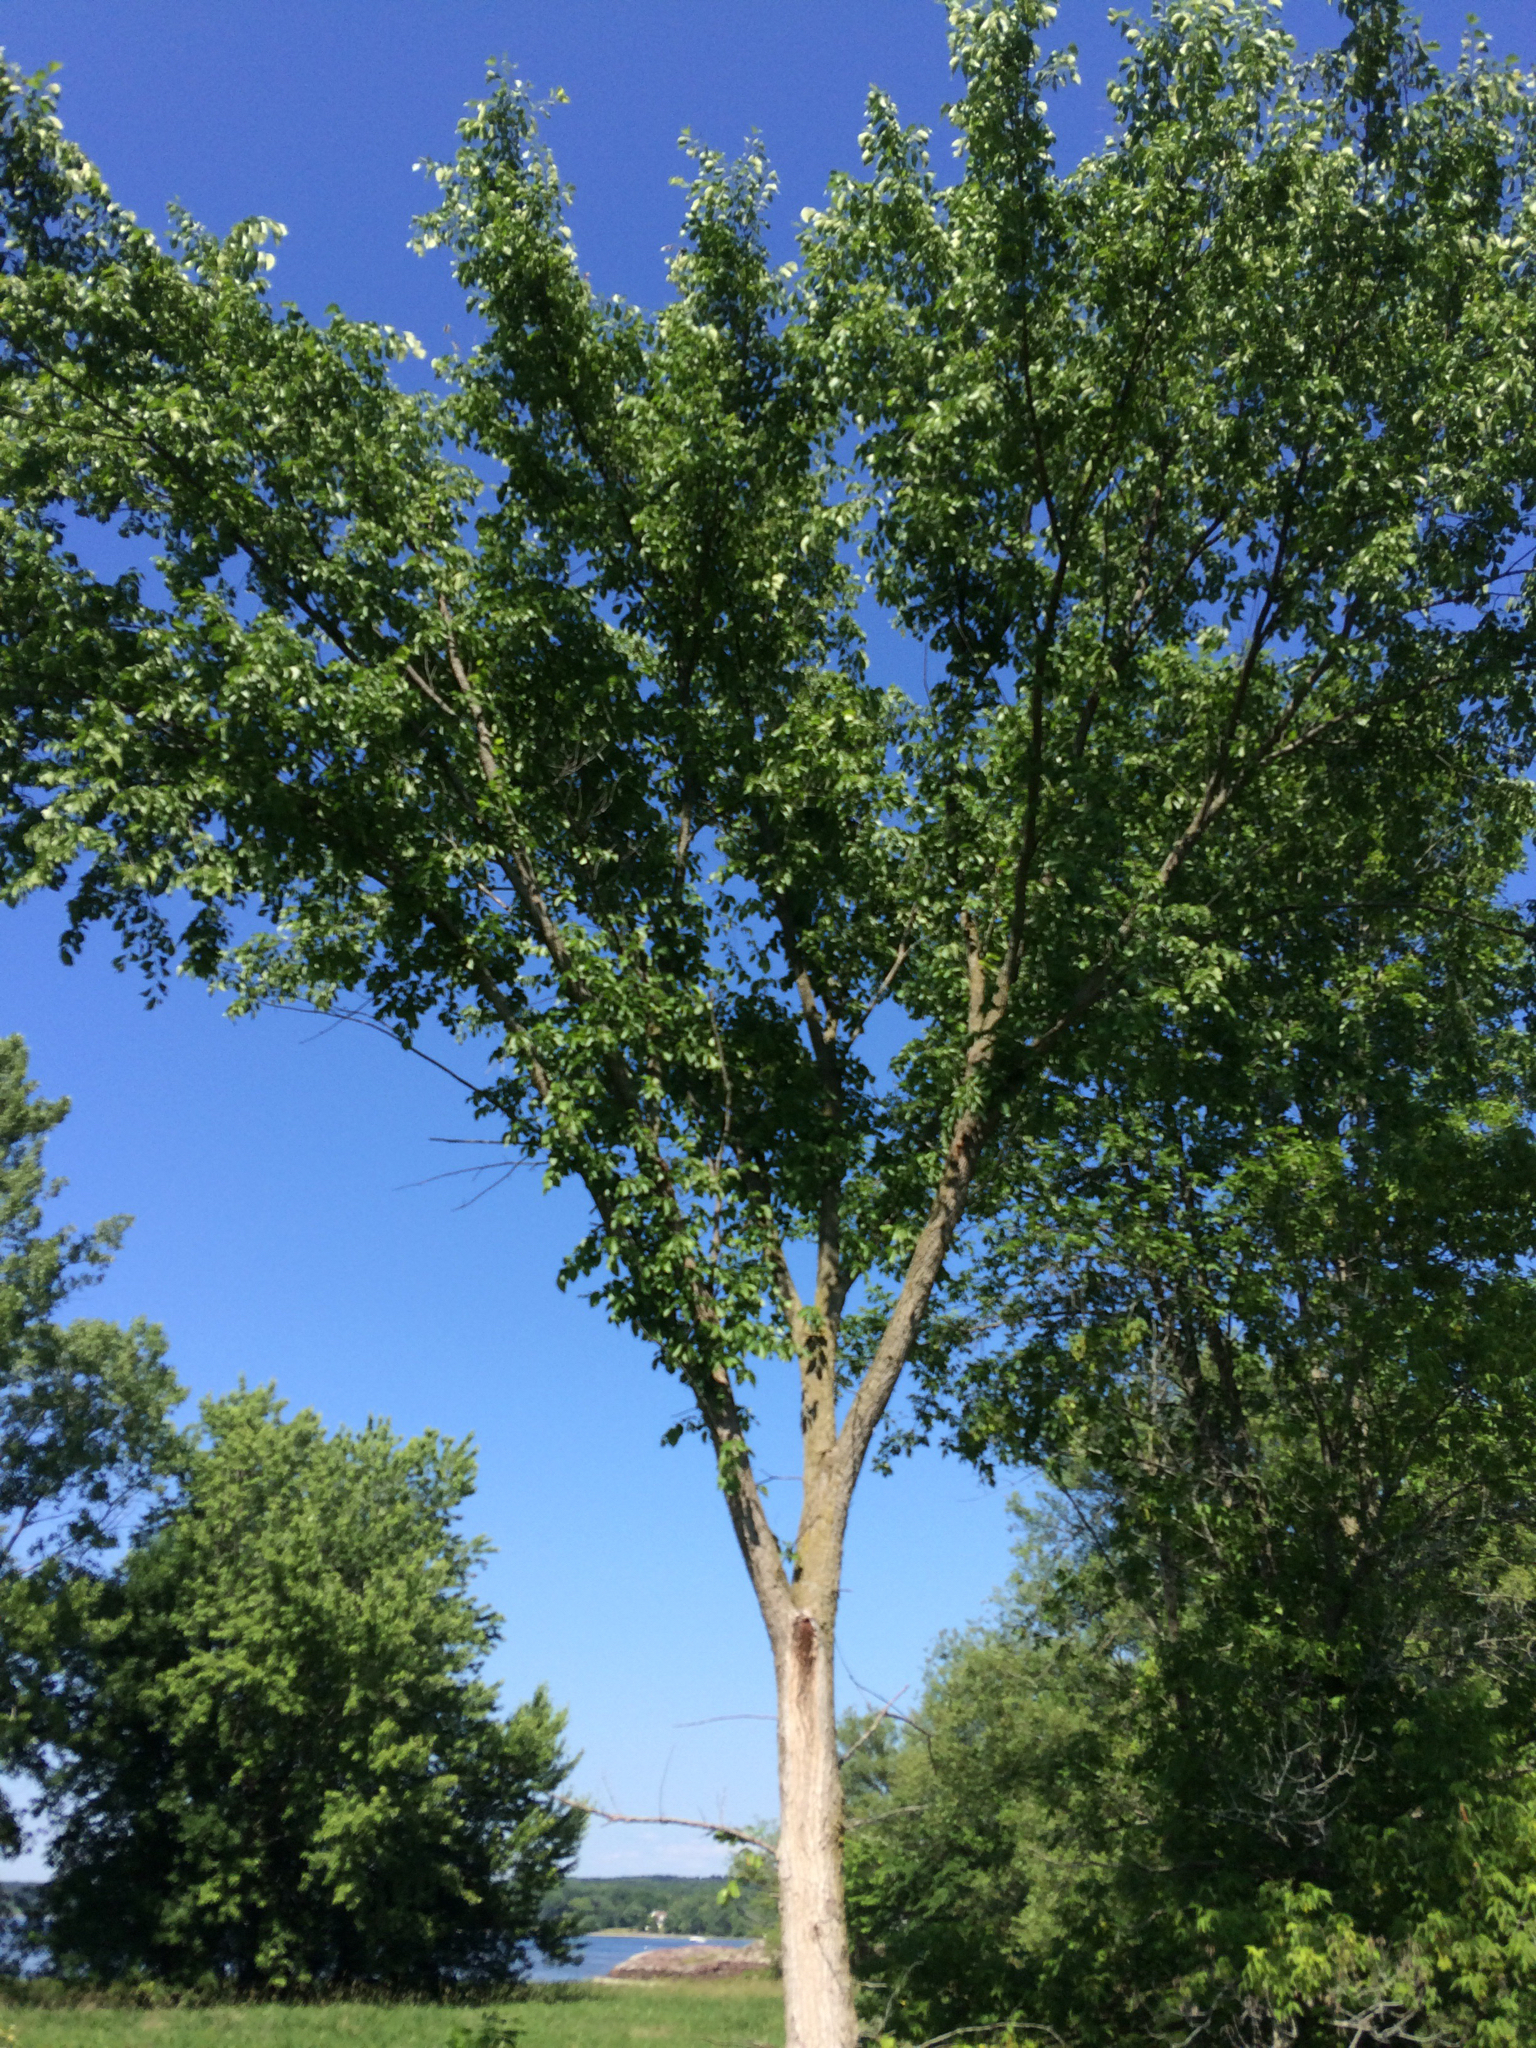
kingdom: Plantae
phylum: Tracheophyta
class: Magnoliopsida
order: Rosales
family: Ulmaceae
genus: Ulmus
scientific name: Ulmus americana
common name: American elm
